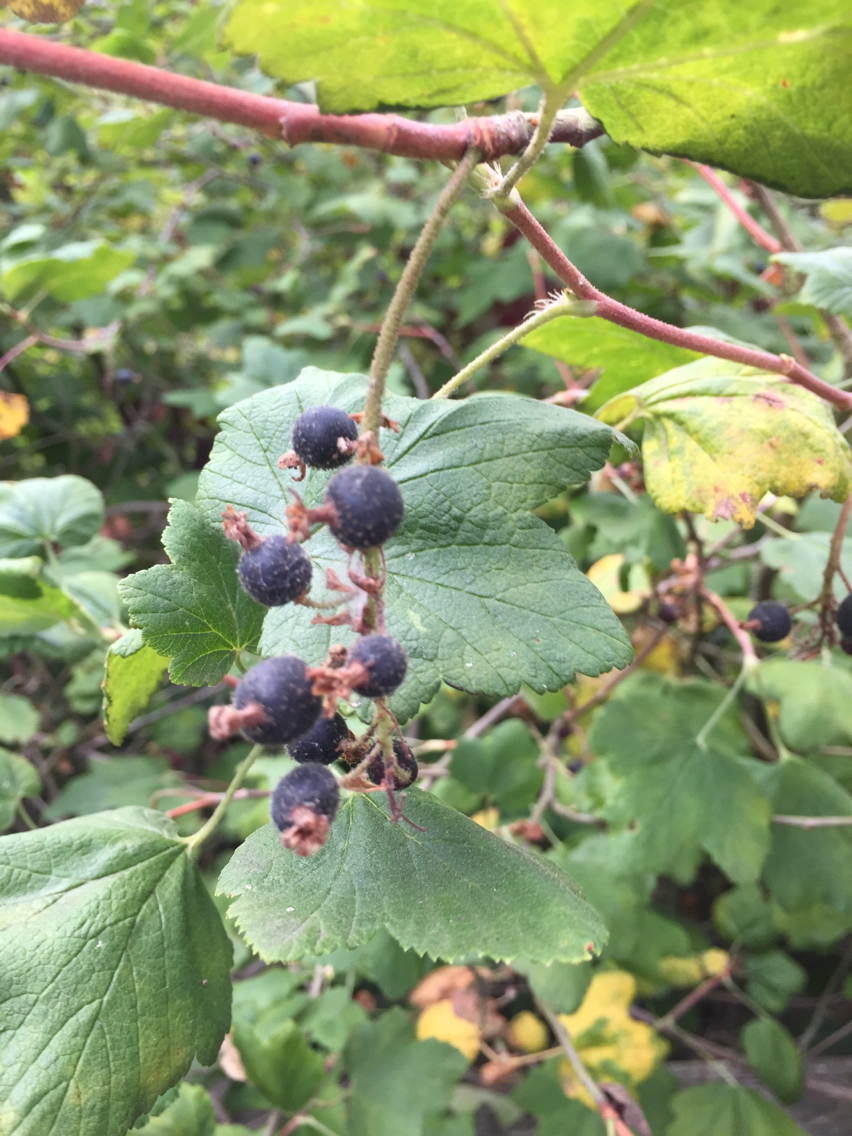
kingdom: Plantae
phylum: Tracheophyta
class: Magnoliopsida
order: Saxifragales
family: Grossulariaceae
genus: Ribes
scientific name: Ribes sanguineum
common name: Flowering currant
